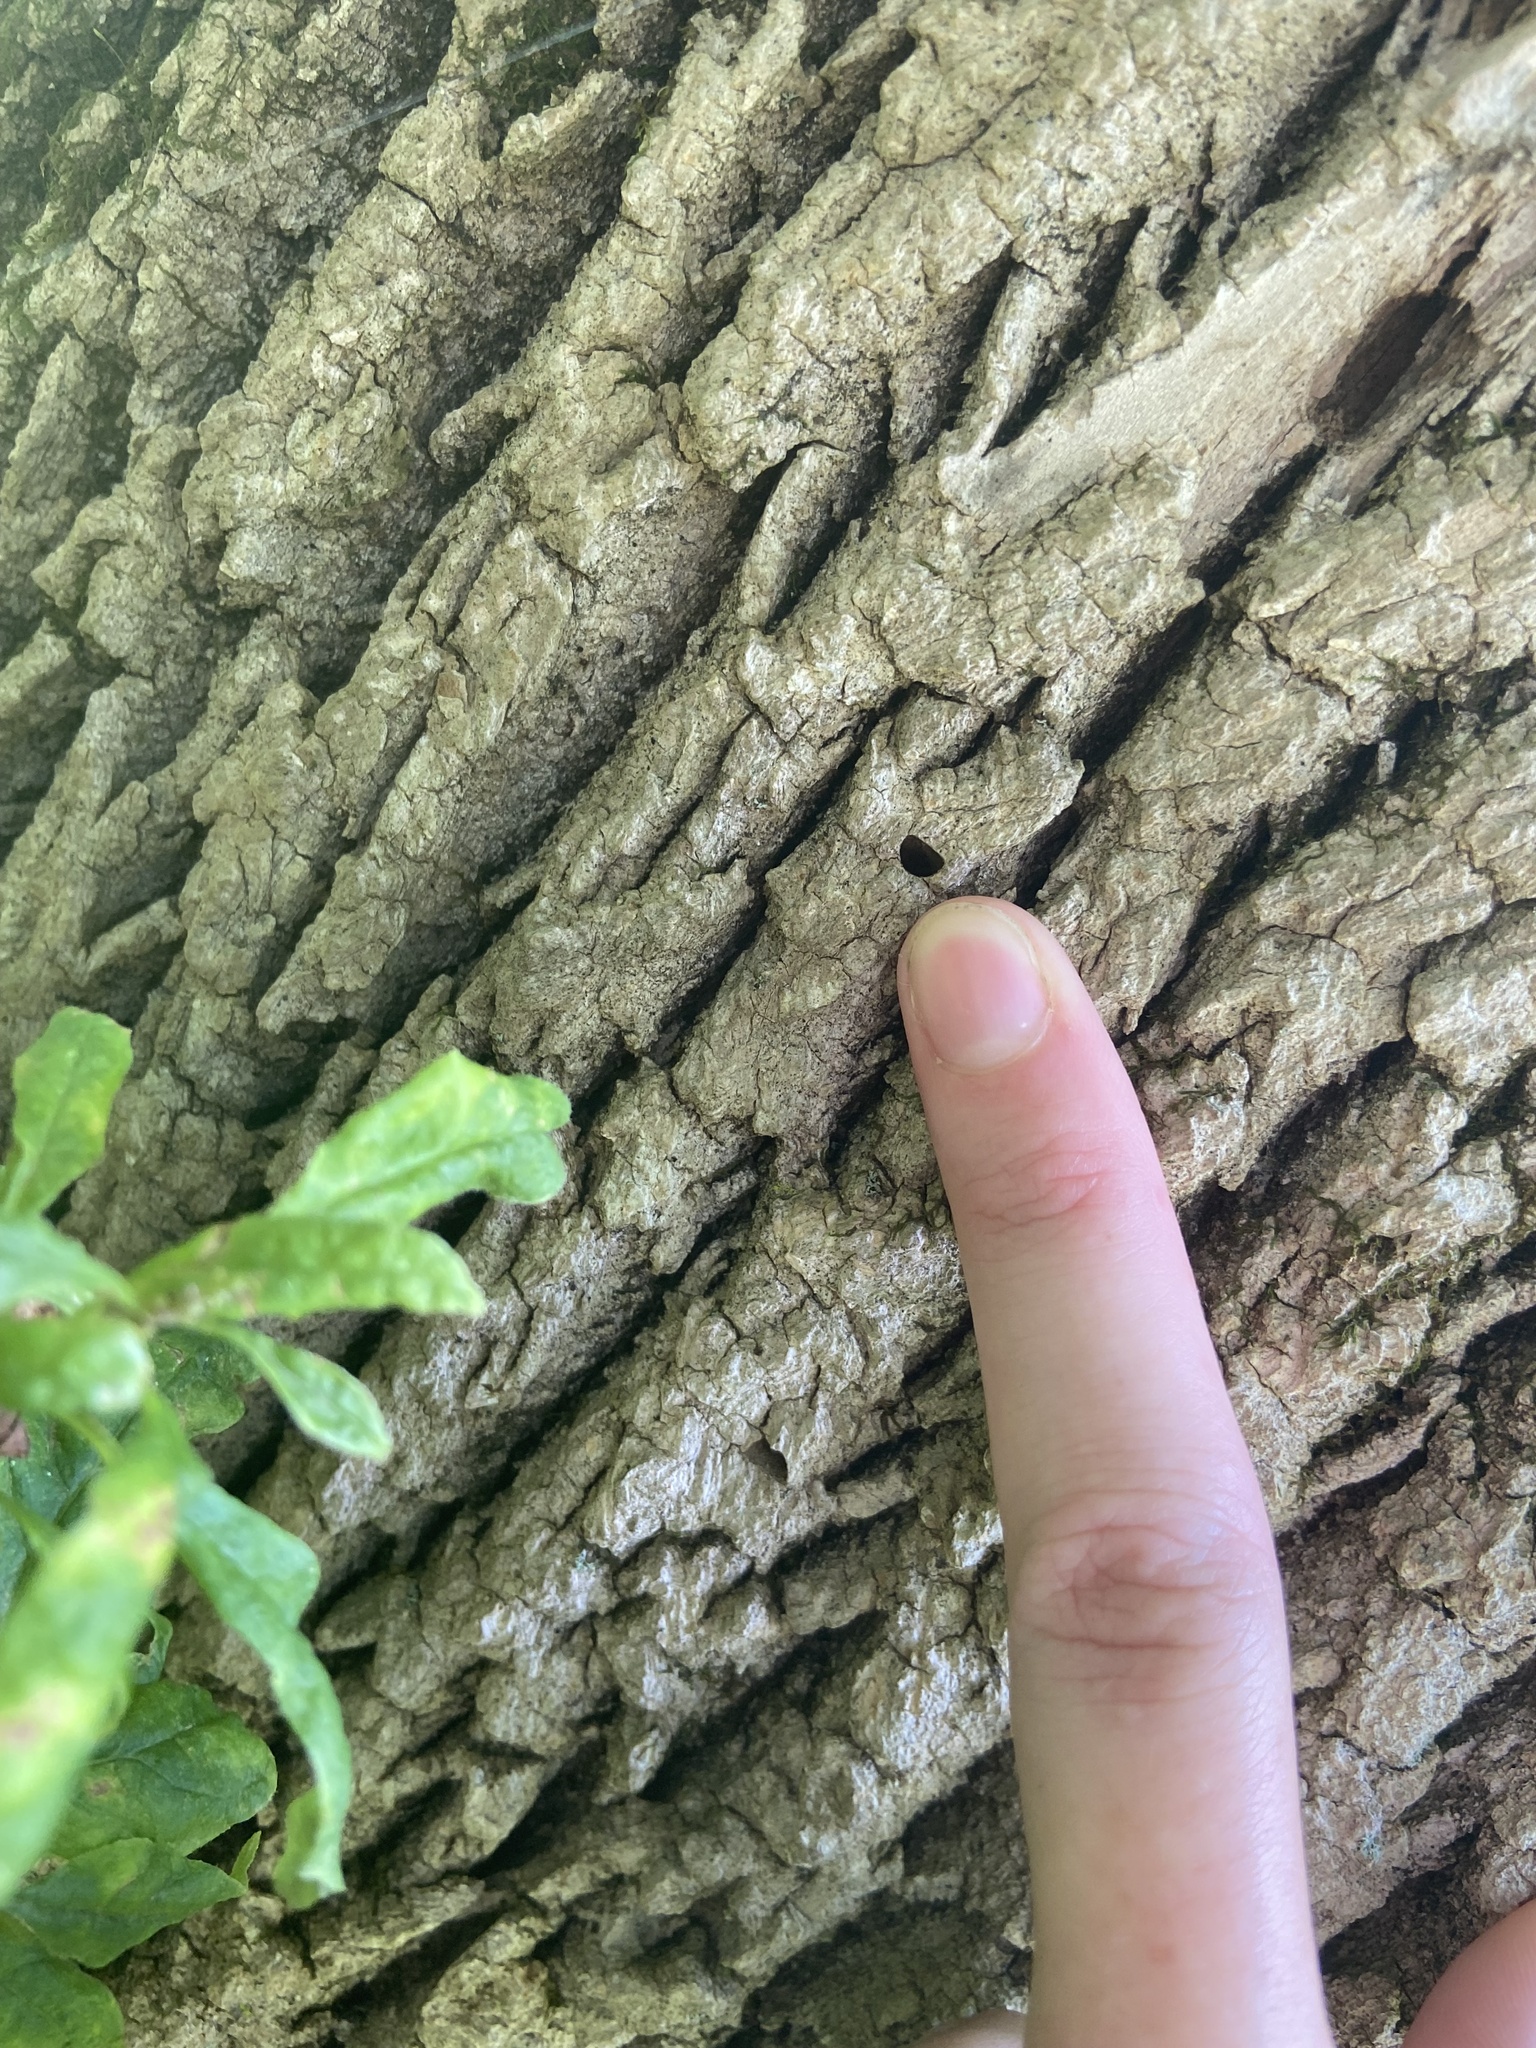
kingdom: Animalia
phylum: Arthropoda
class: Insecta
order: Coleoptera
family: Buprestidae
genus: Agrilus
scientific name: Agrilus planipennis
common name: Emerald ash borer
